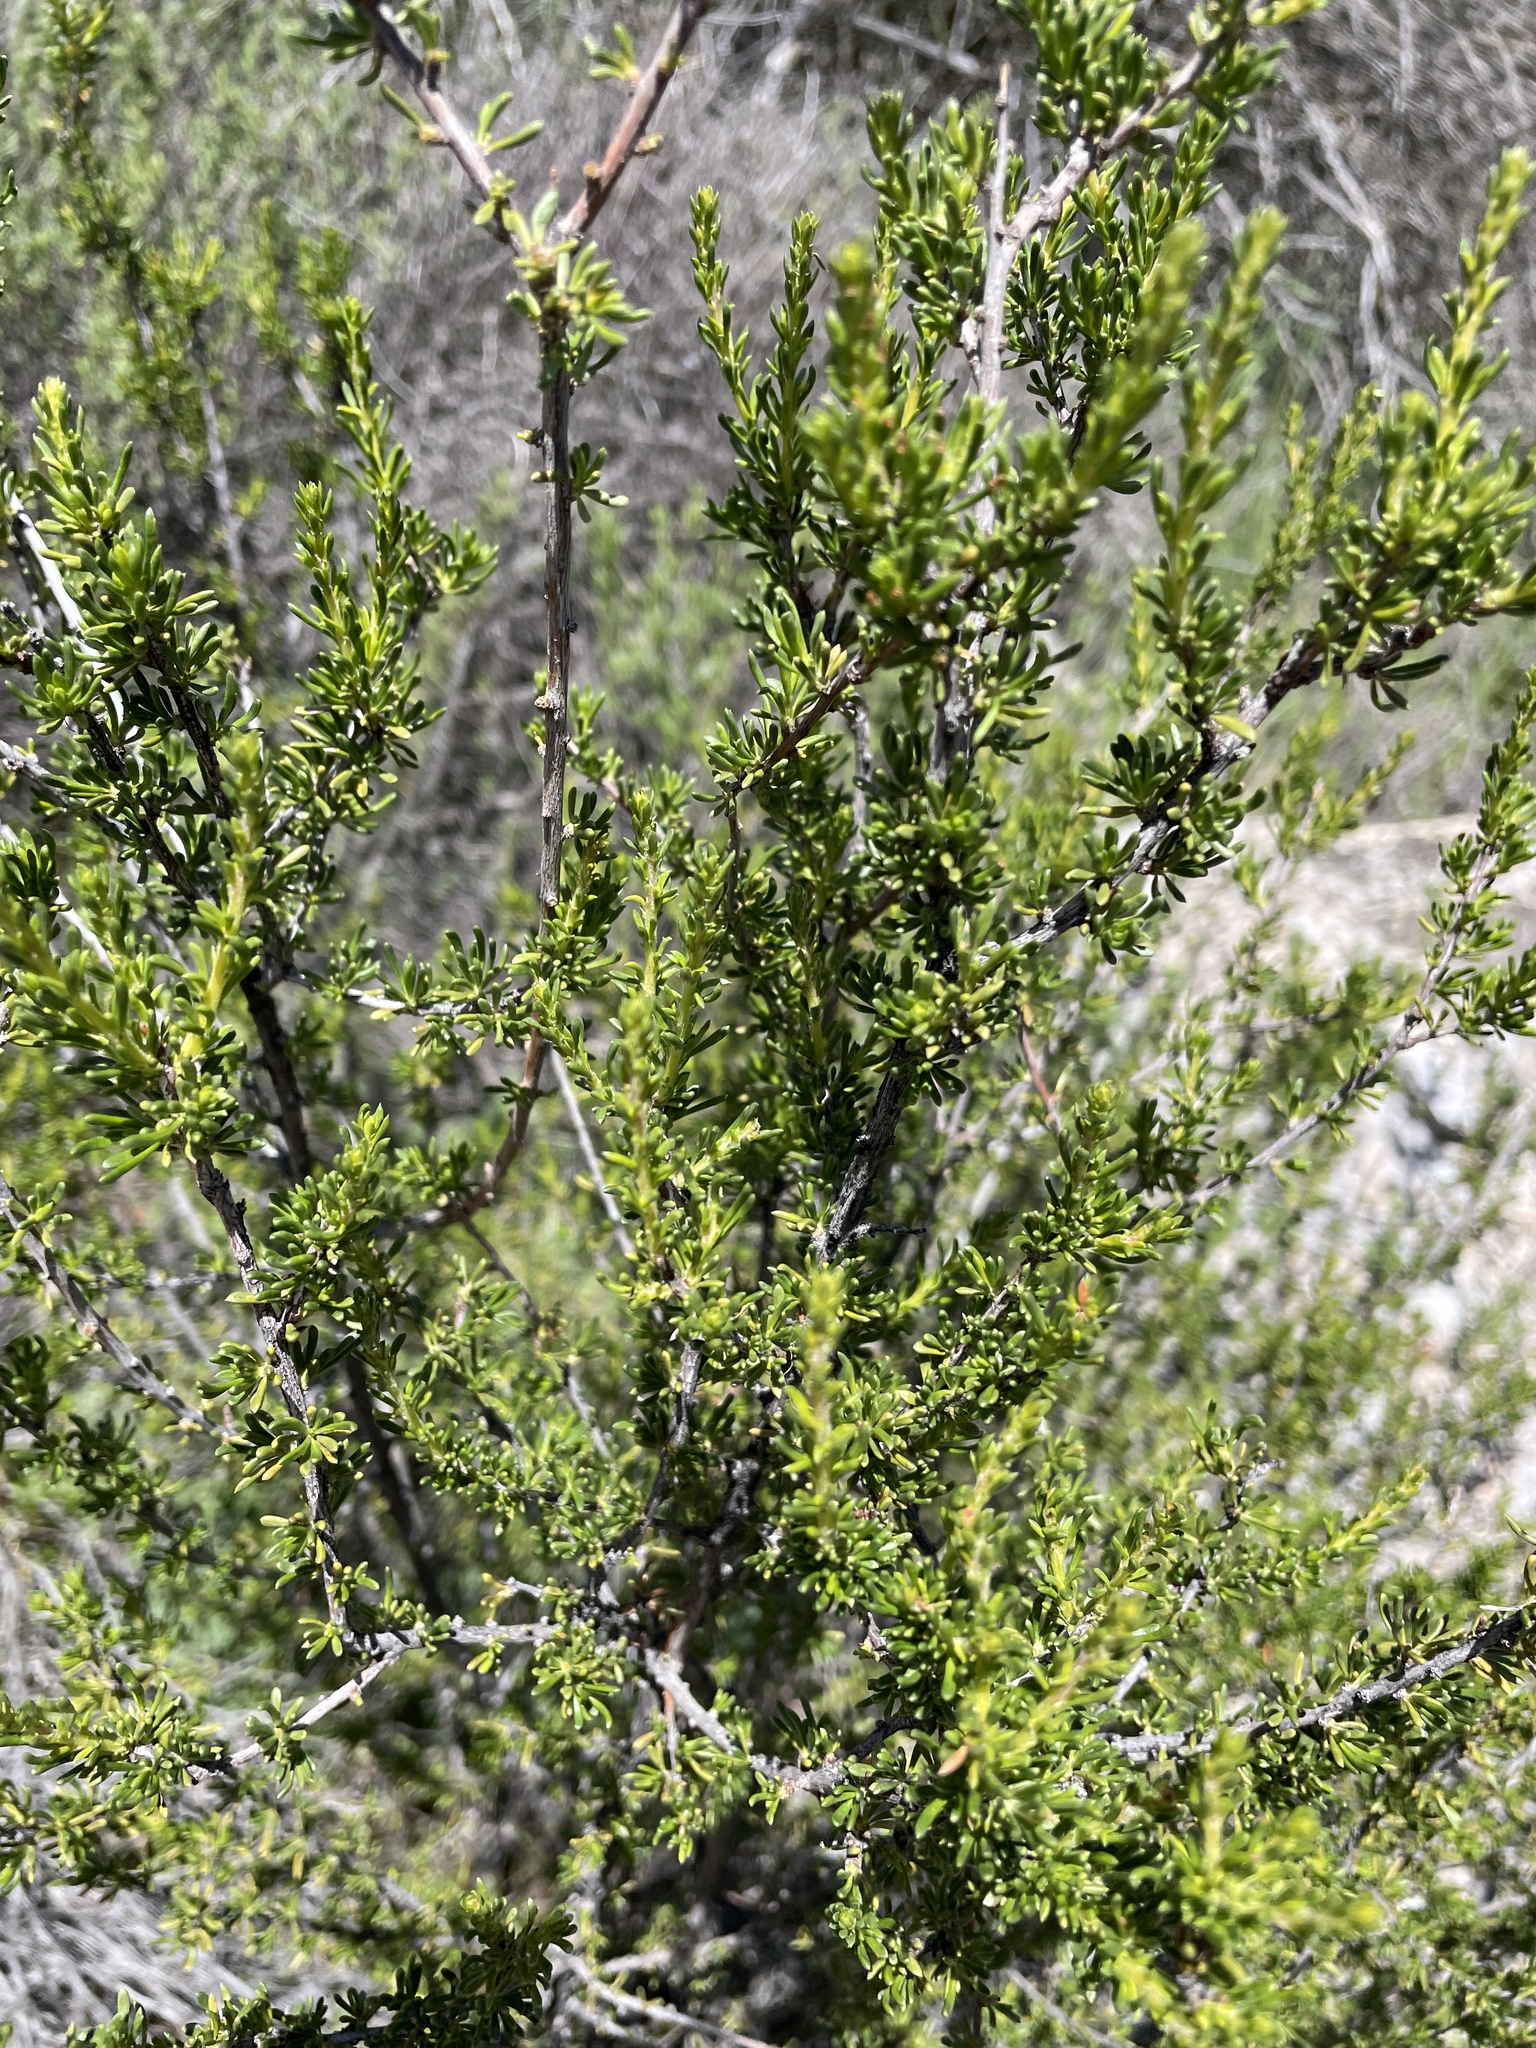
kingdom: Plantae
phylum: Tracheophyta
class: Magnoliopsida
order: Rosales
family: Rosaceae
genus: Adenostoma
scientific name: Adenostoma fasciculatum
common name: Chamise
